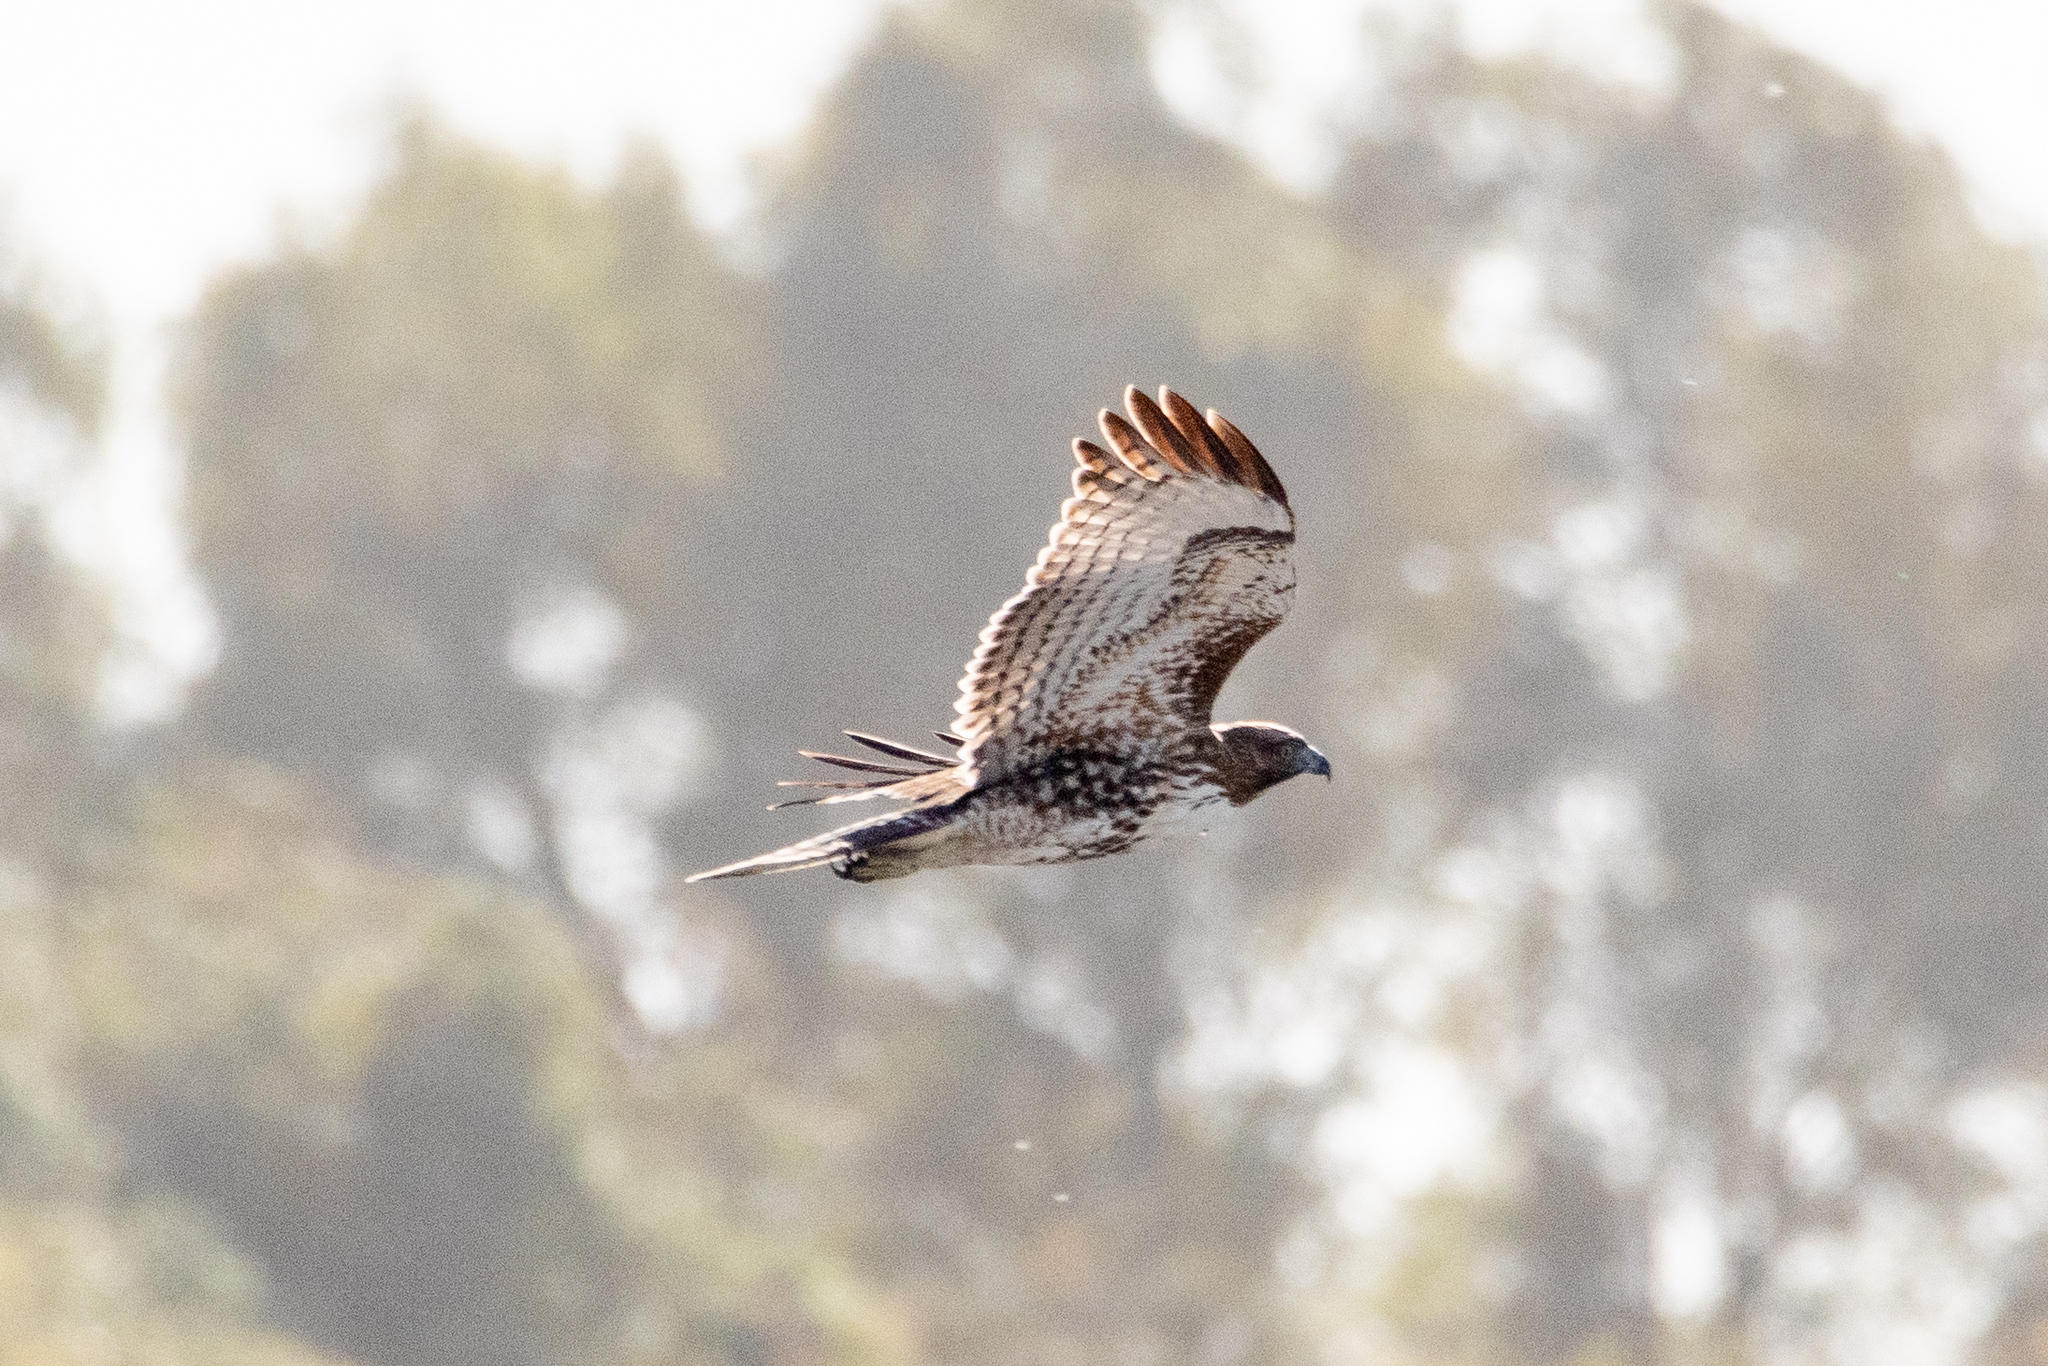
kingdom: Animalia
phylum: Chordata
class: Aves
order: Accipitriformes
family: Accipitridae
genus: Buteo
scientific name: Buteo jamaicensis
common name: Red-tailed hawk
